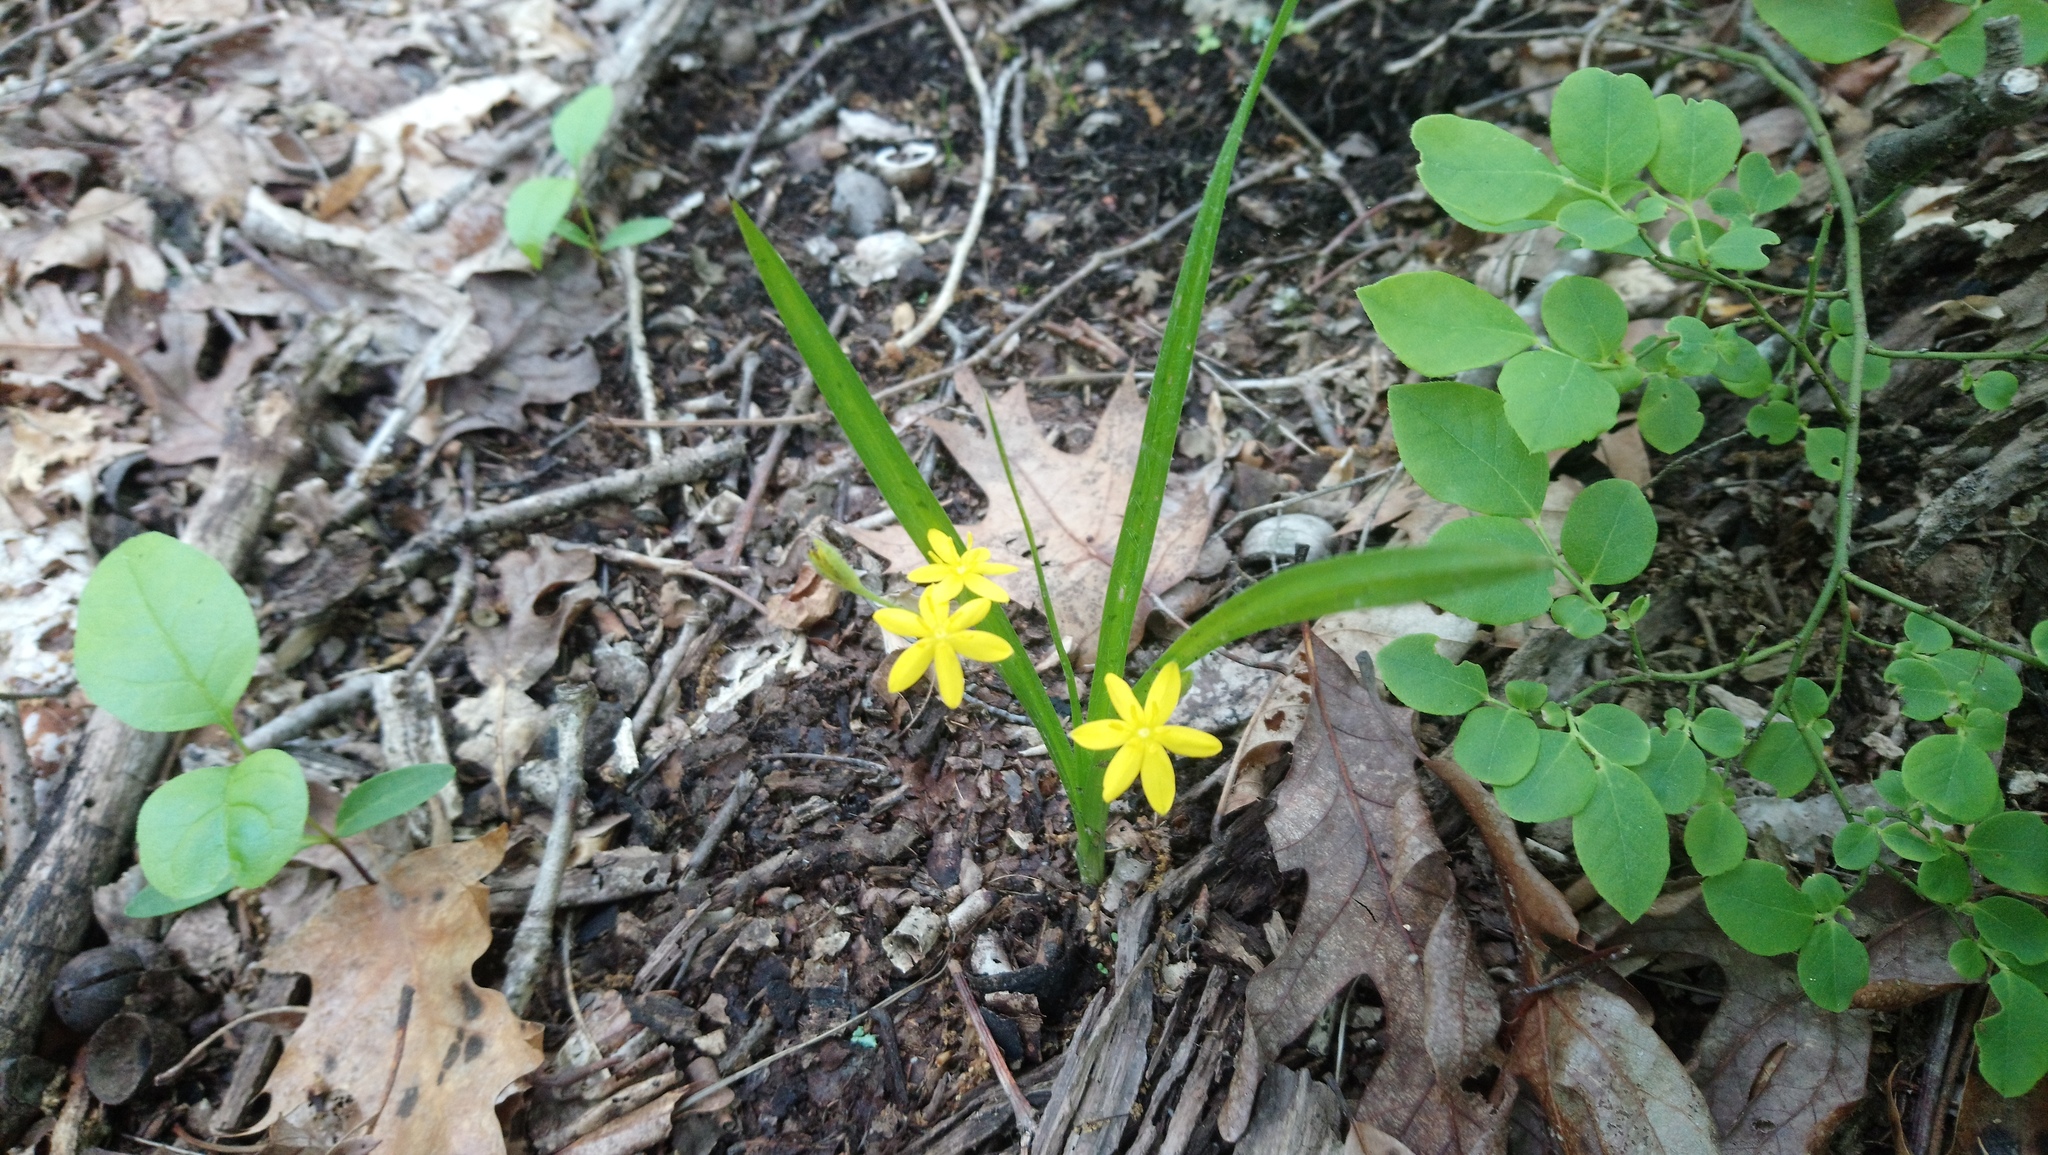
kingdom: Plantae
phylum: Tracheophyta
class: Liliopsida
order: Asparagales
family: Hypoxidaceae
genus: Hypoxis
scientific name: Hypoxis hirsuta
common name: Common goldstar
